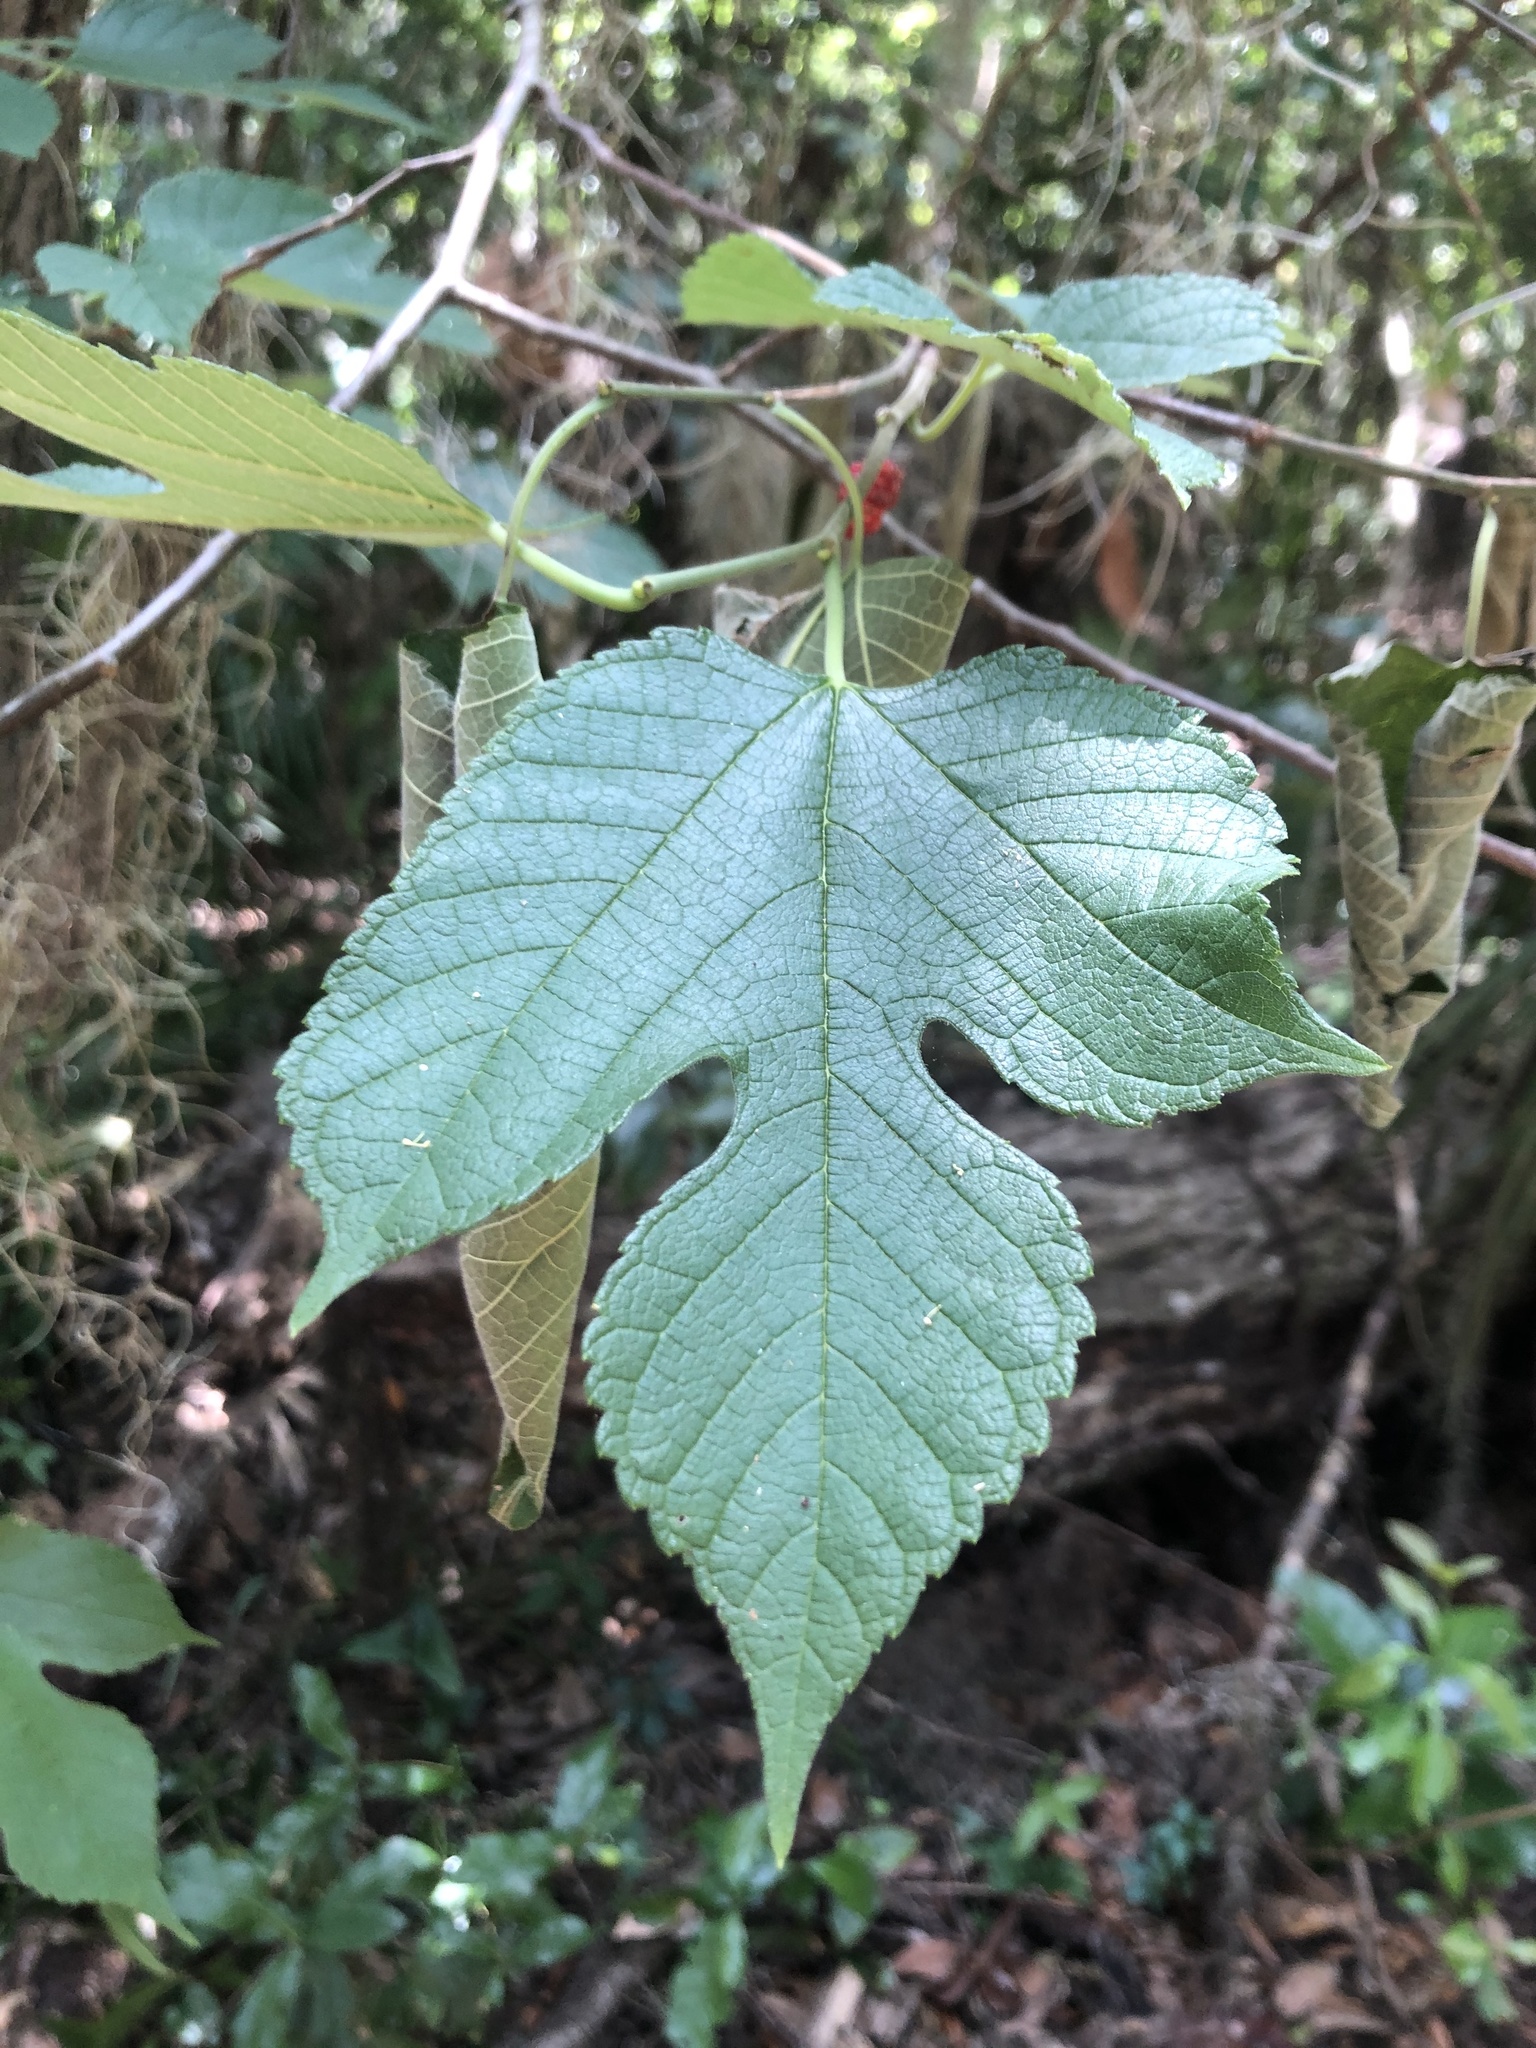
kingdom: Plantae
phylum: Tracheophyta
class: Magnoliopsida
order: Rosales
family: Moraceae
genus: Morus
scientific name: Morus rubra
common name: Red mulberry
